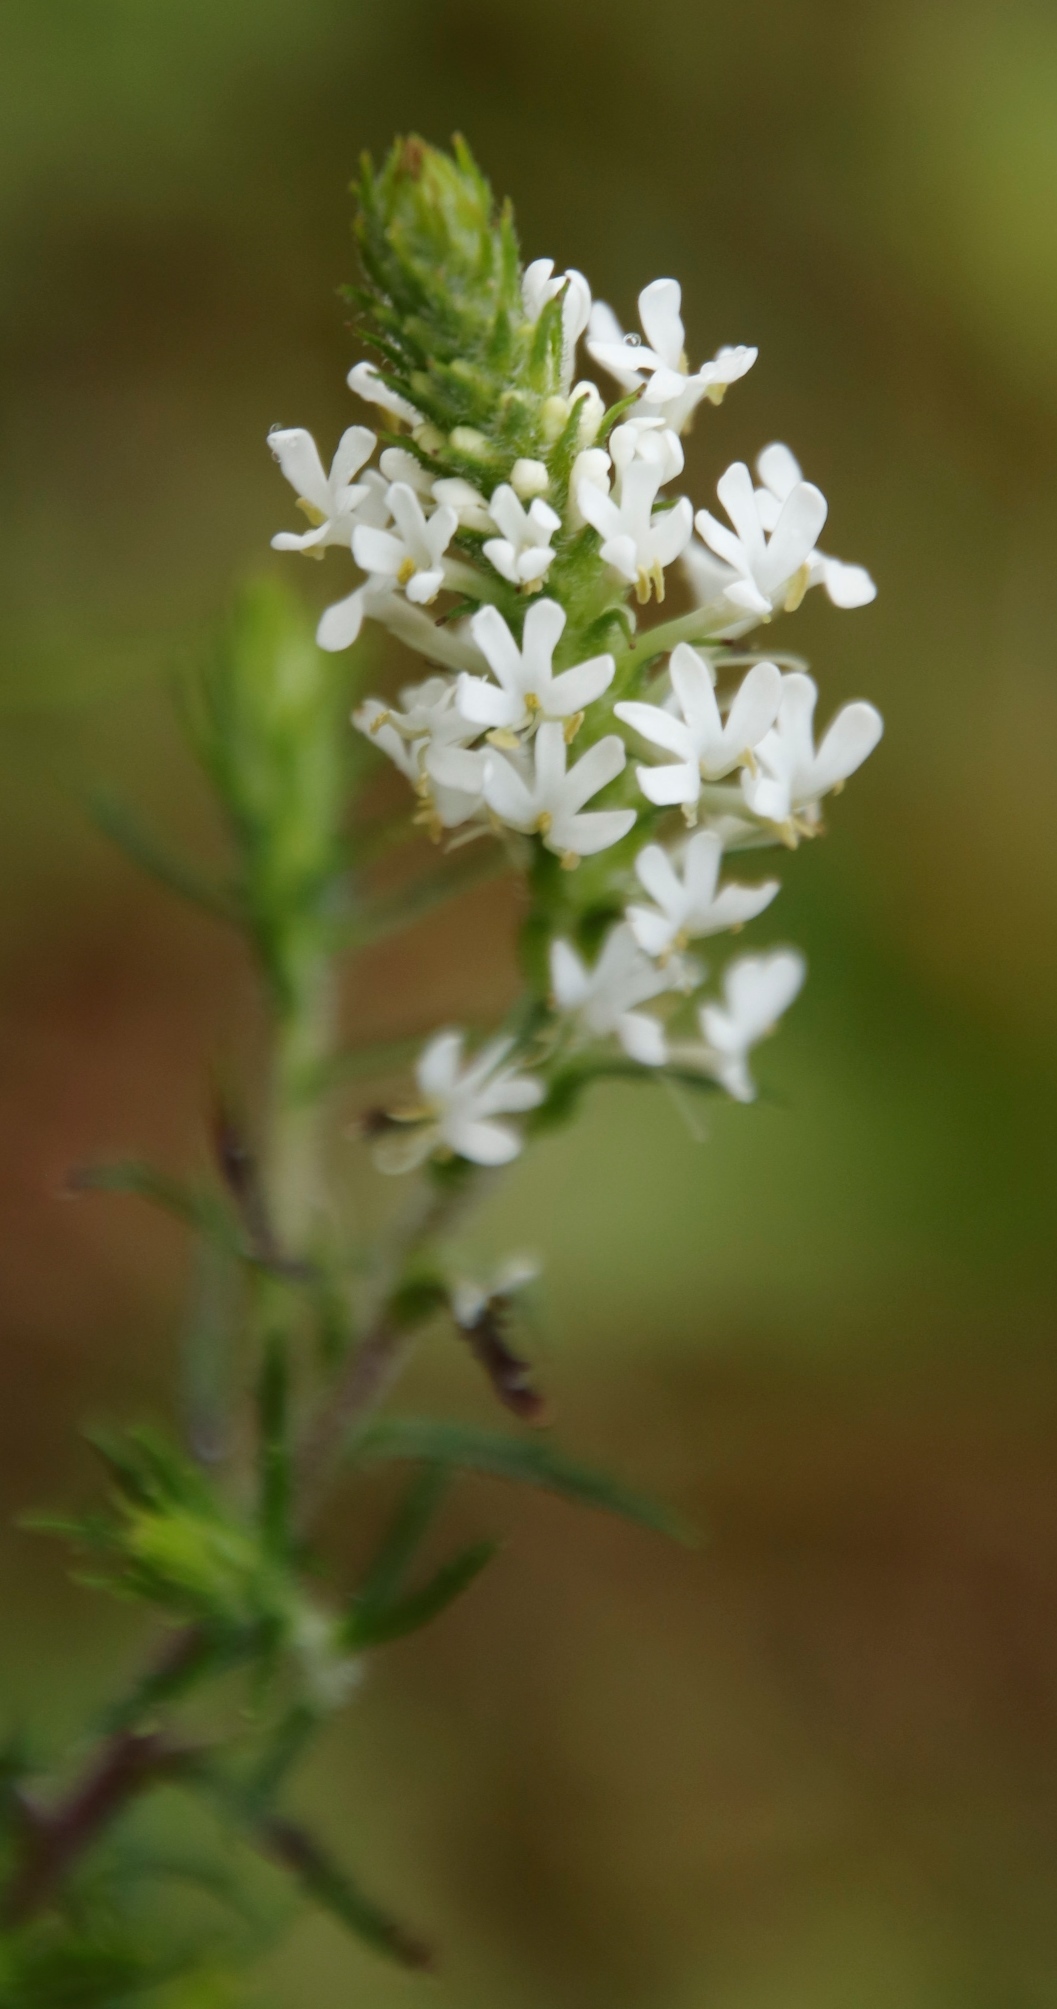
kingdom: Plantae
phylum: Tracheophyta
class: Magnoliopsida
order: Lamiales
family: Scrophulariaceae
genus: Dischisma
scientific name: Dischisma ciliatum
